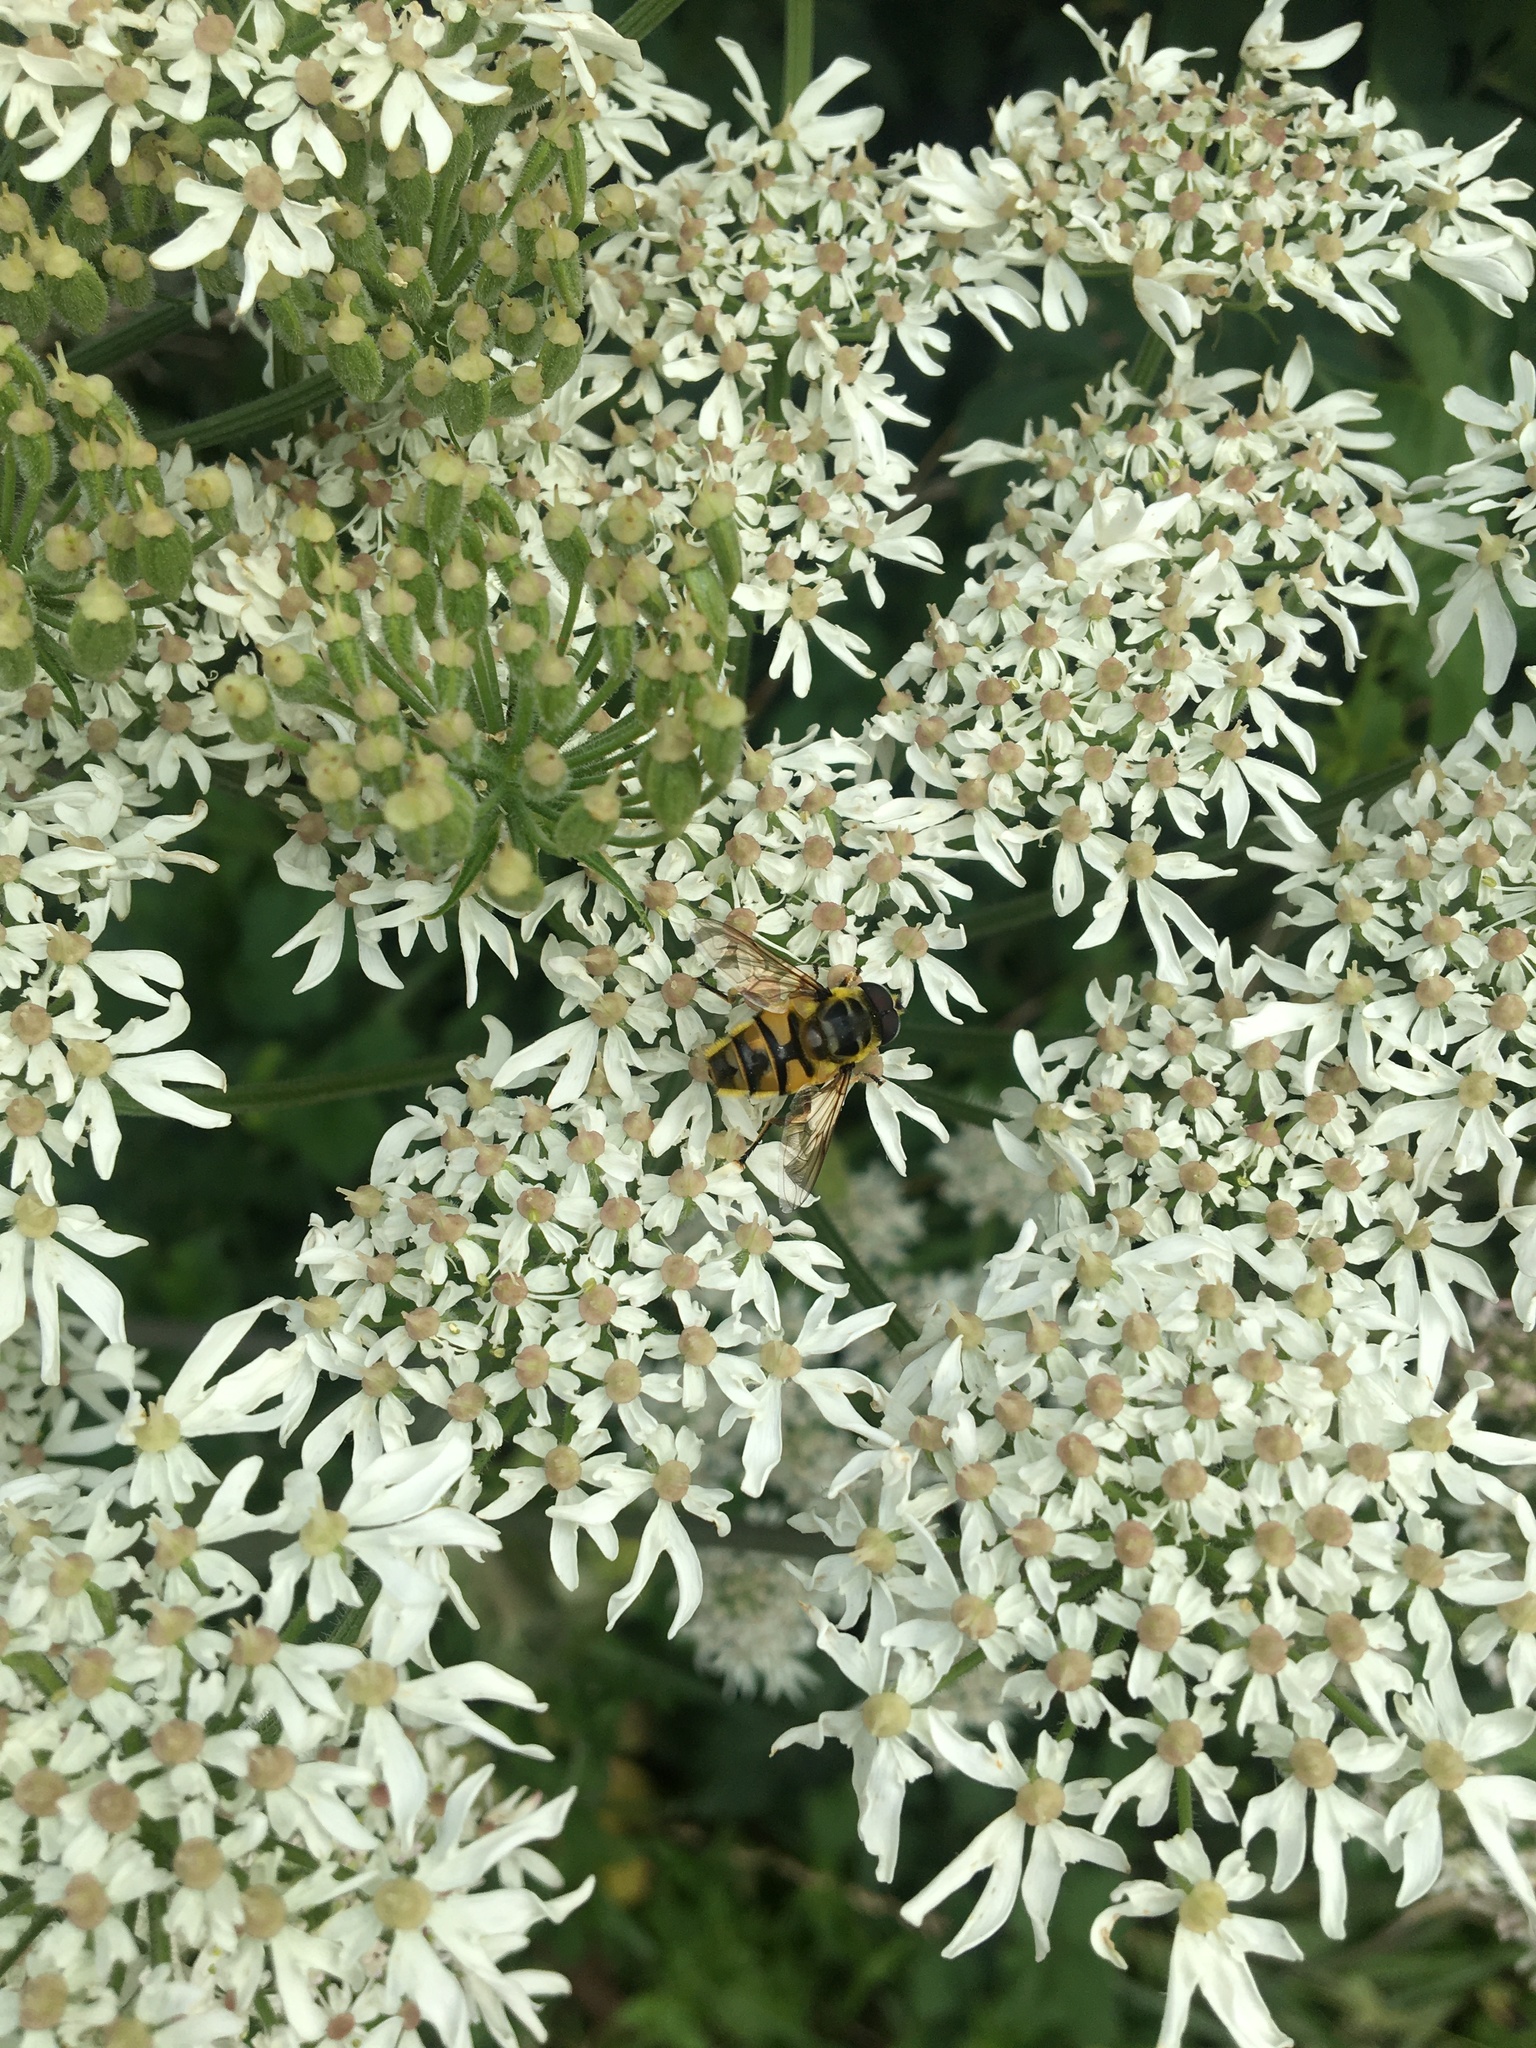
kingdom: Animalia
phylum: Arthropoda
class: Insecta
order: Diptera
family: Syrphidae
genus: Myathropa
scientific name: Myathropa florea
